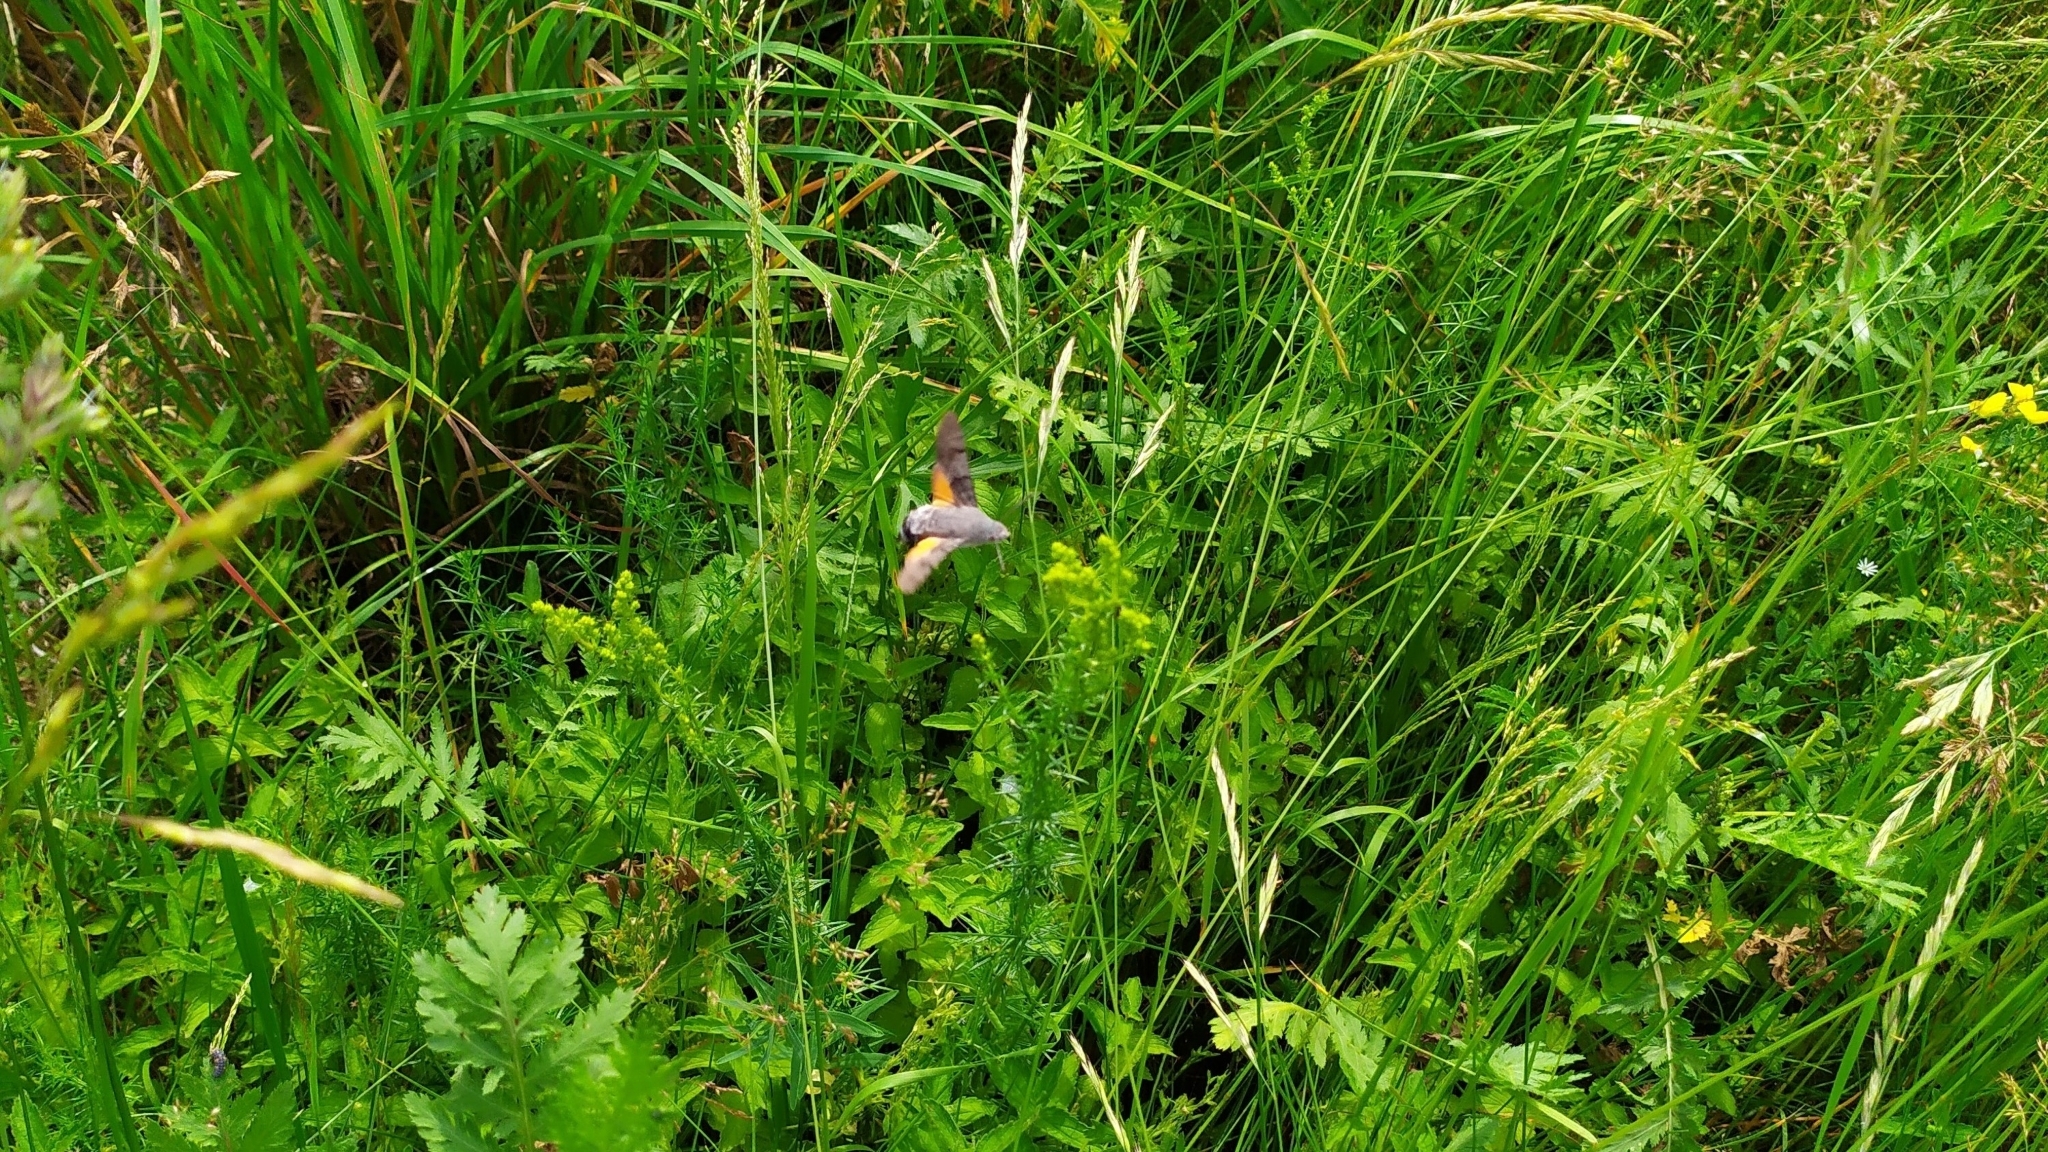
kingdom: Animalia
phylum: Arthropoda
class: Insecta
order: Lepidoptera
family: Sphingidae
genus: Macroglossum
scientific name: Macroglossum stellatarum
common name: Humming-bird hawk-moth
